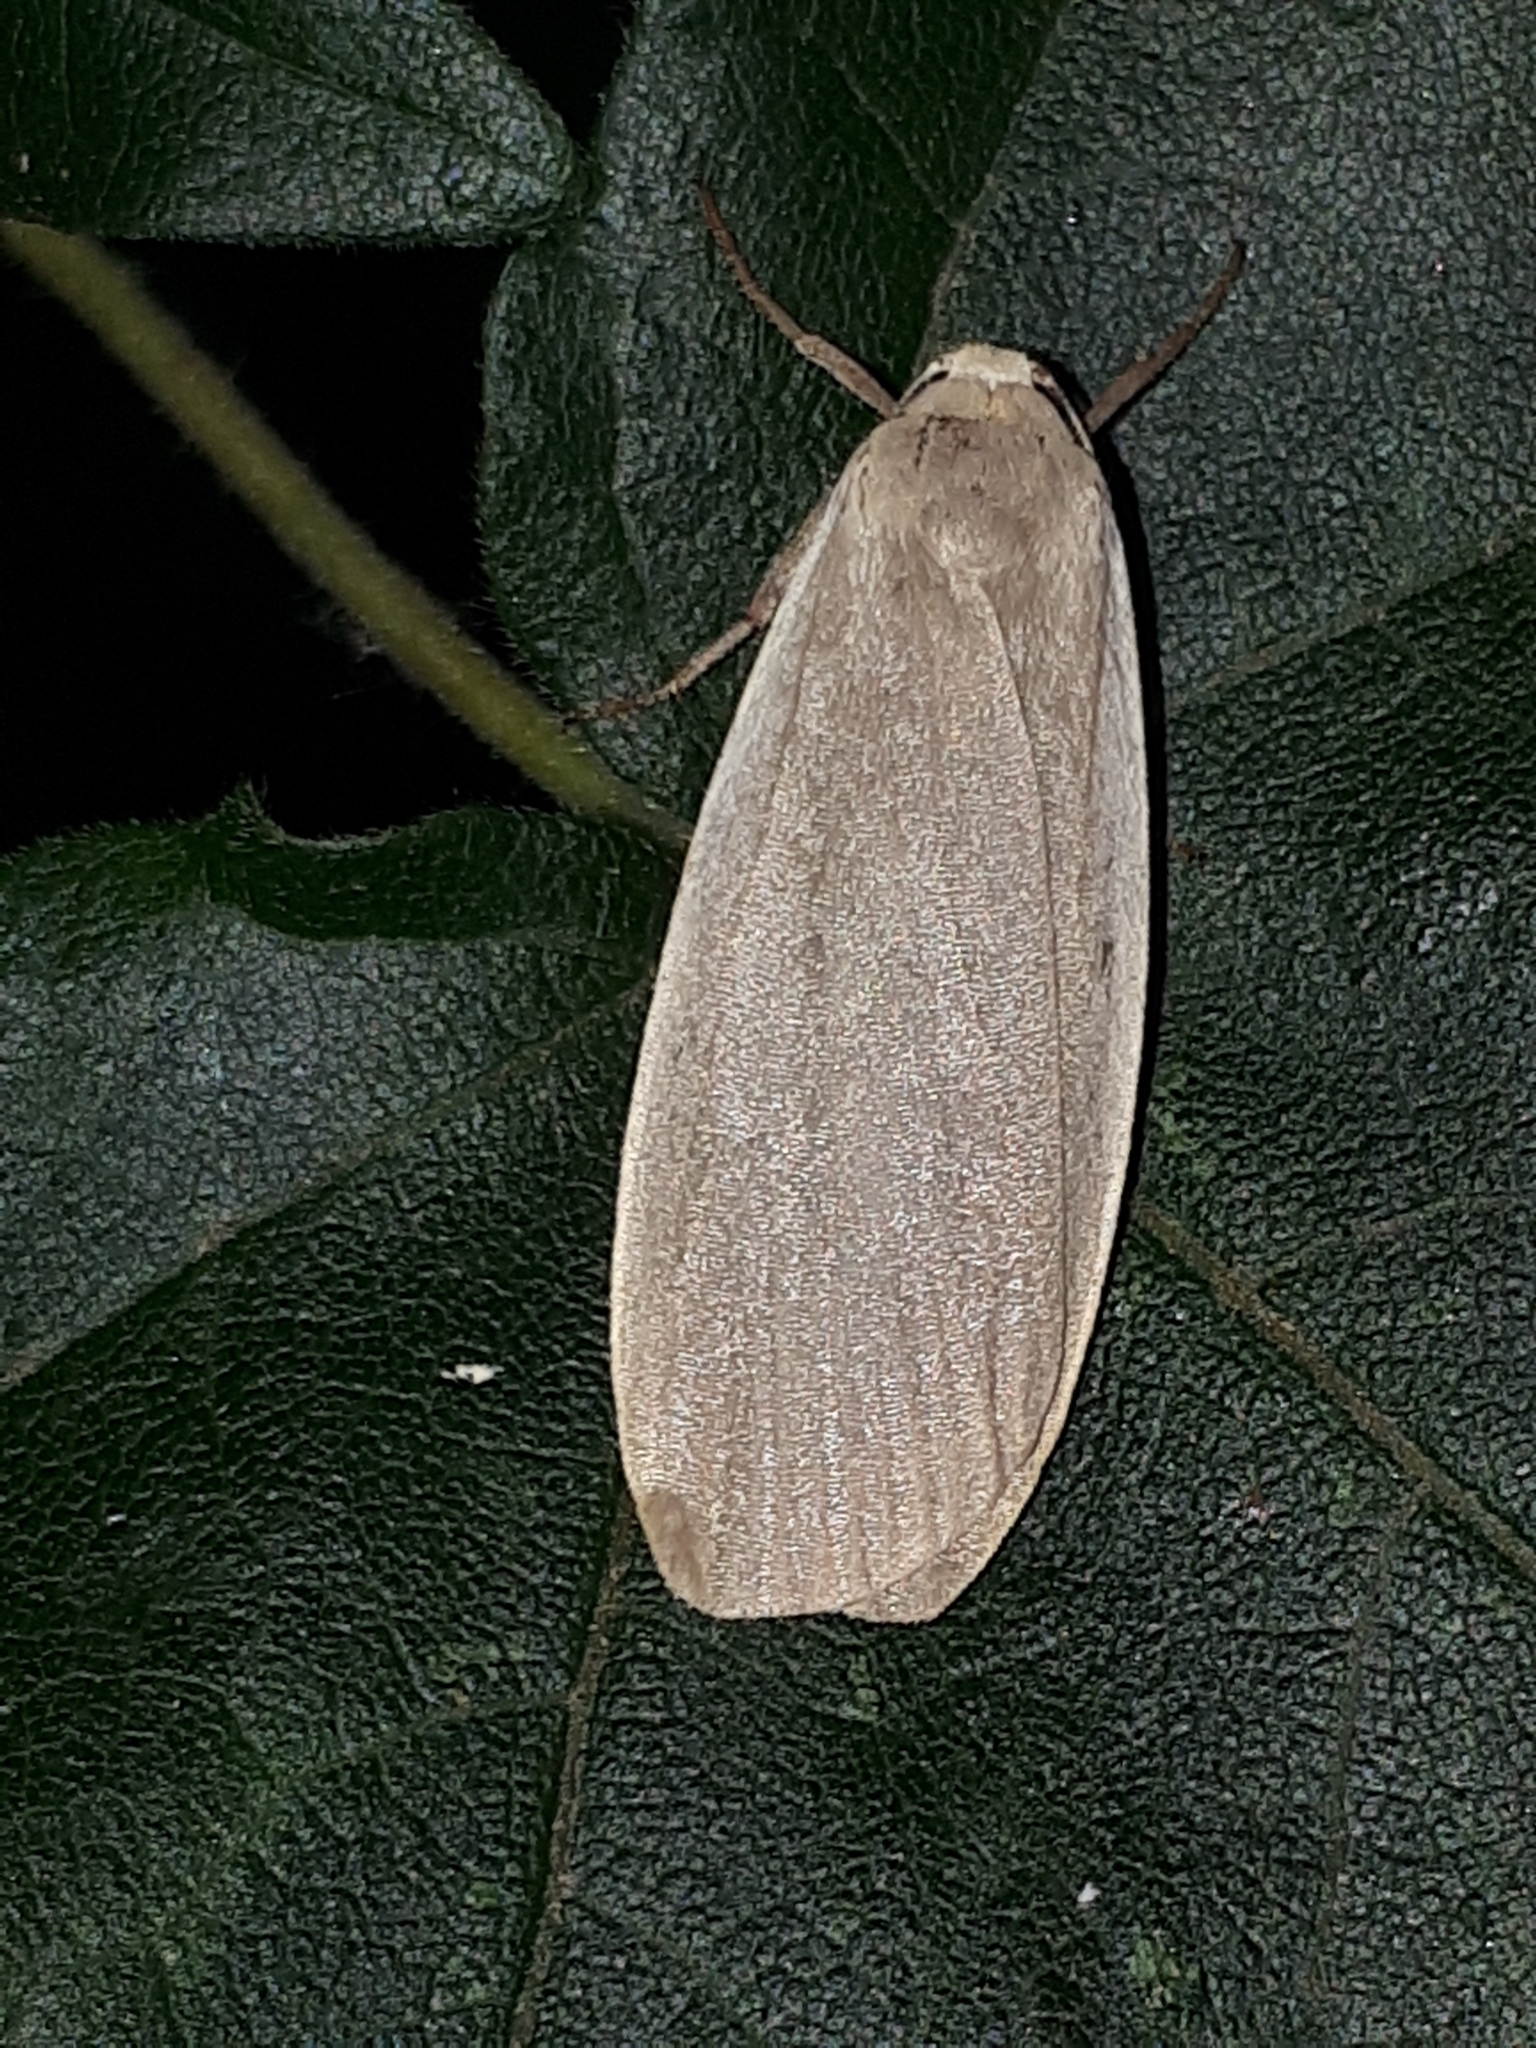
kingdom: Animalia
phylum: Arthropoda
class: Insecta
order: Lepidoptera
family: Erebidae
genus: Collita
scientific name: Collita griseola
